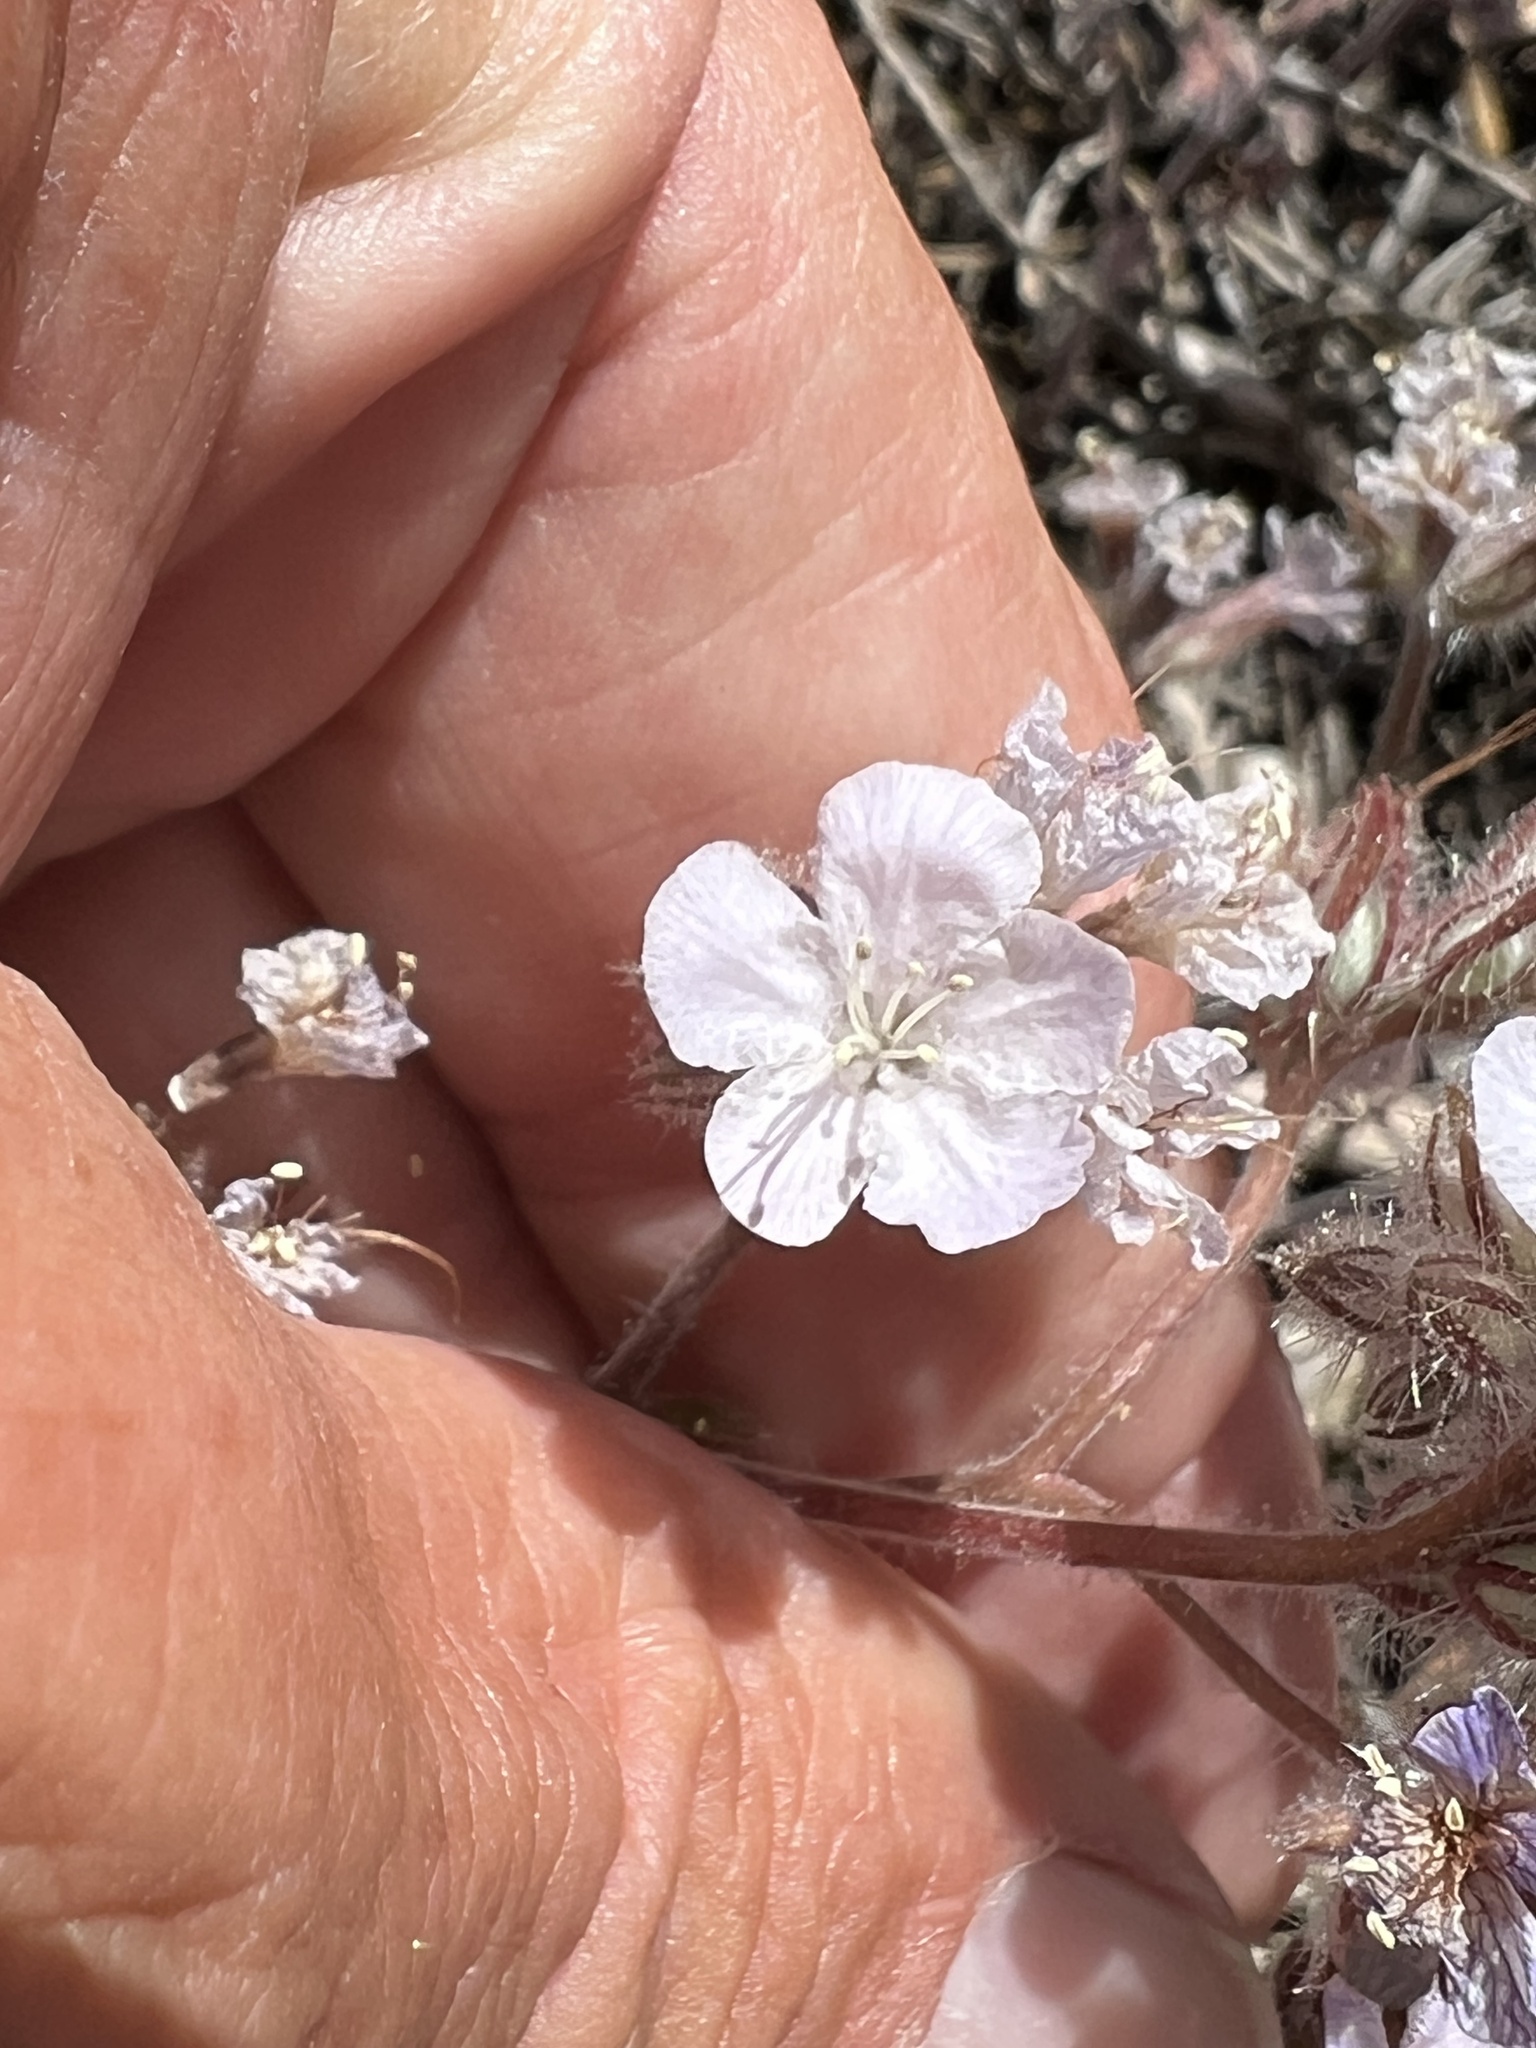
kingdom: Plantae
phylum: Tracheophyta
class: Magnoliopsida
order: Boraginales
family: Hydrophyllaceae
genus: Phacelia
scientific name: Phacelia vallis-mortae
